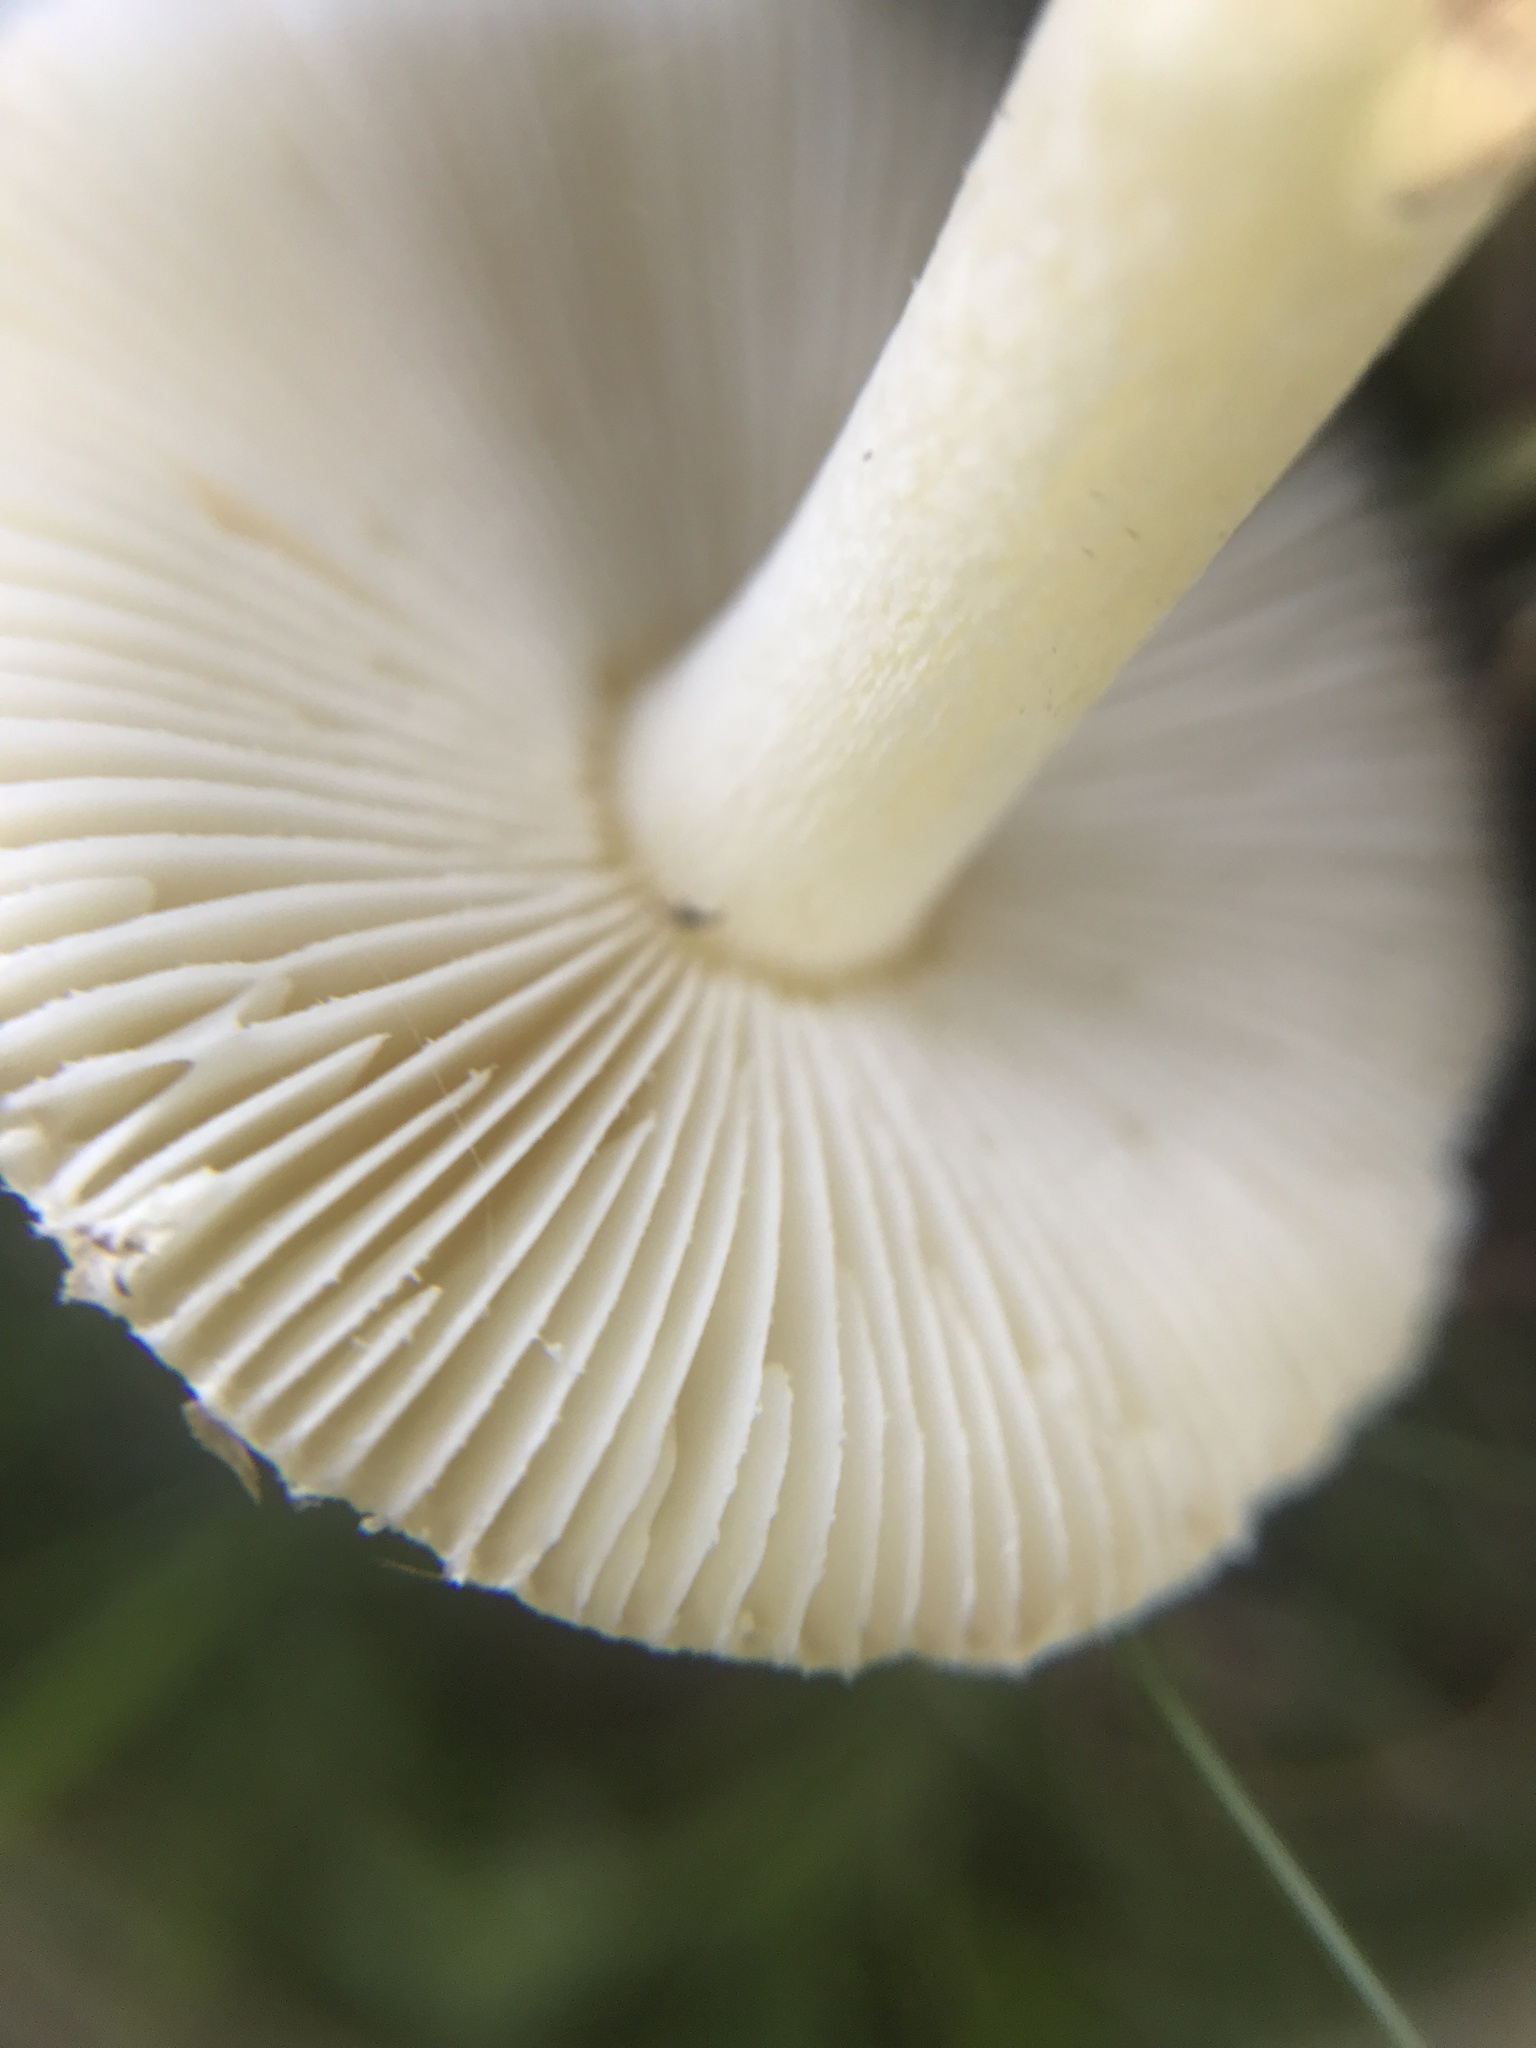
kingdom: Fungi
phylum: Basidiomycota
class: Agaricomycetes
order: Agaricales
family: Amanitaceae
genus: Amanita
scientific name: Amanita crenulata
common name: Poison champagne amanita
